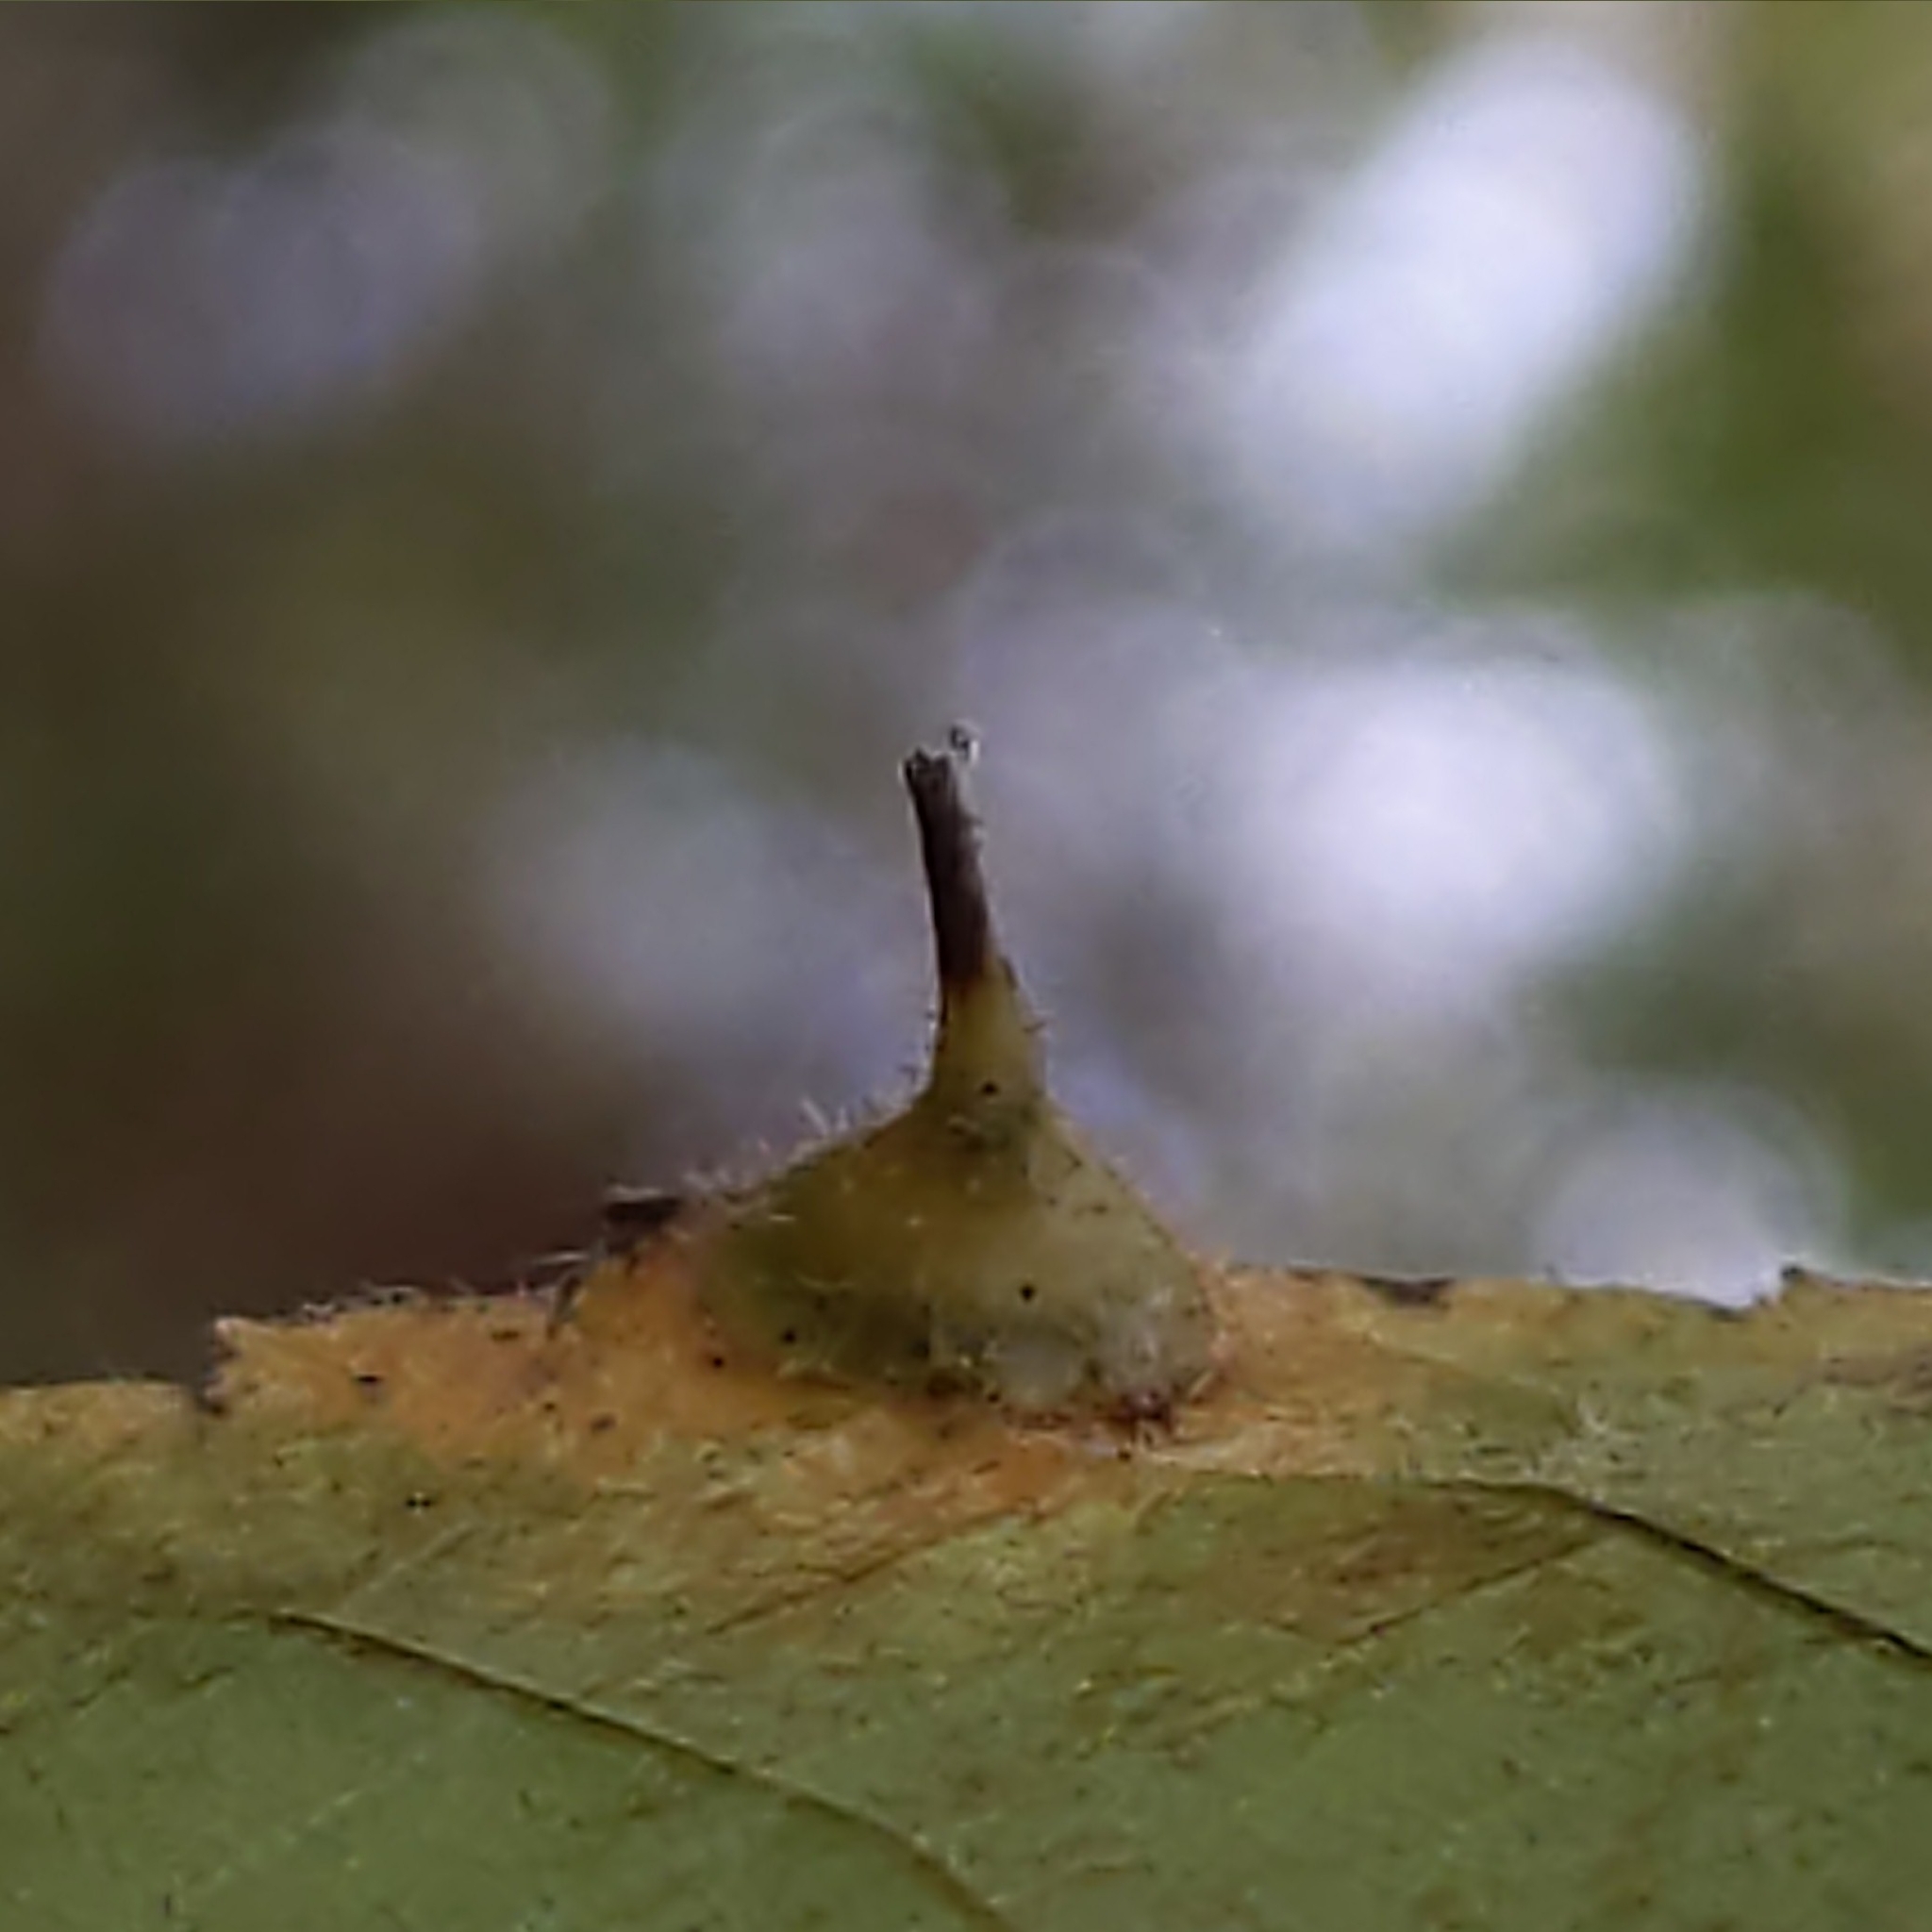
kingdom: Animalia
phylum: Arthropoda
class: Insecta
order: Diptera
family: Cecidomyiidae
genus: Caryomyia
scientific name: Caryomyia marginata
